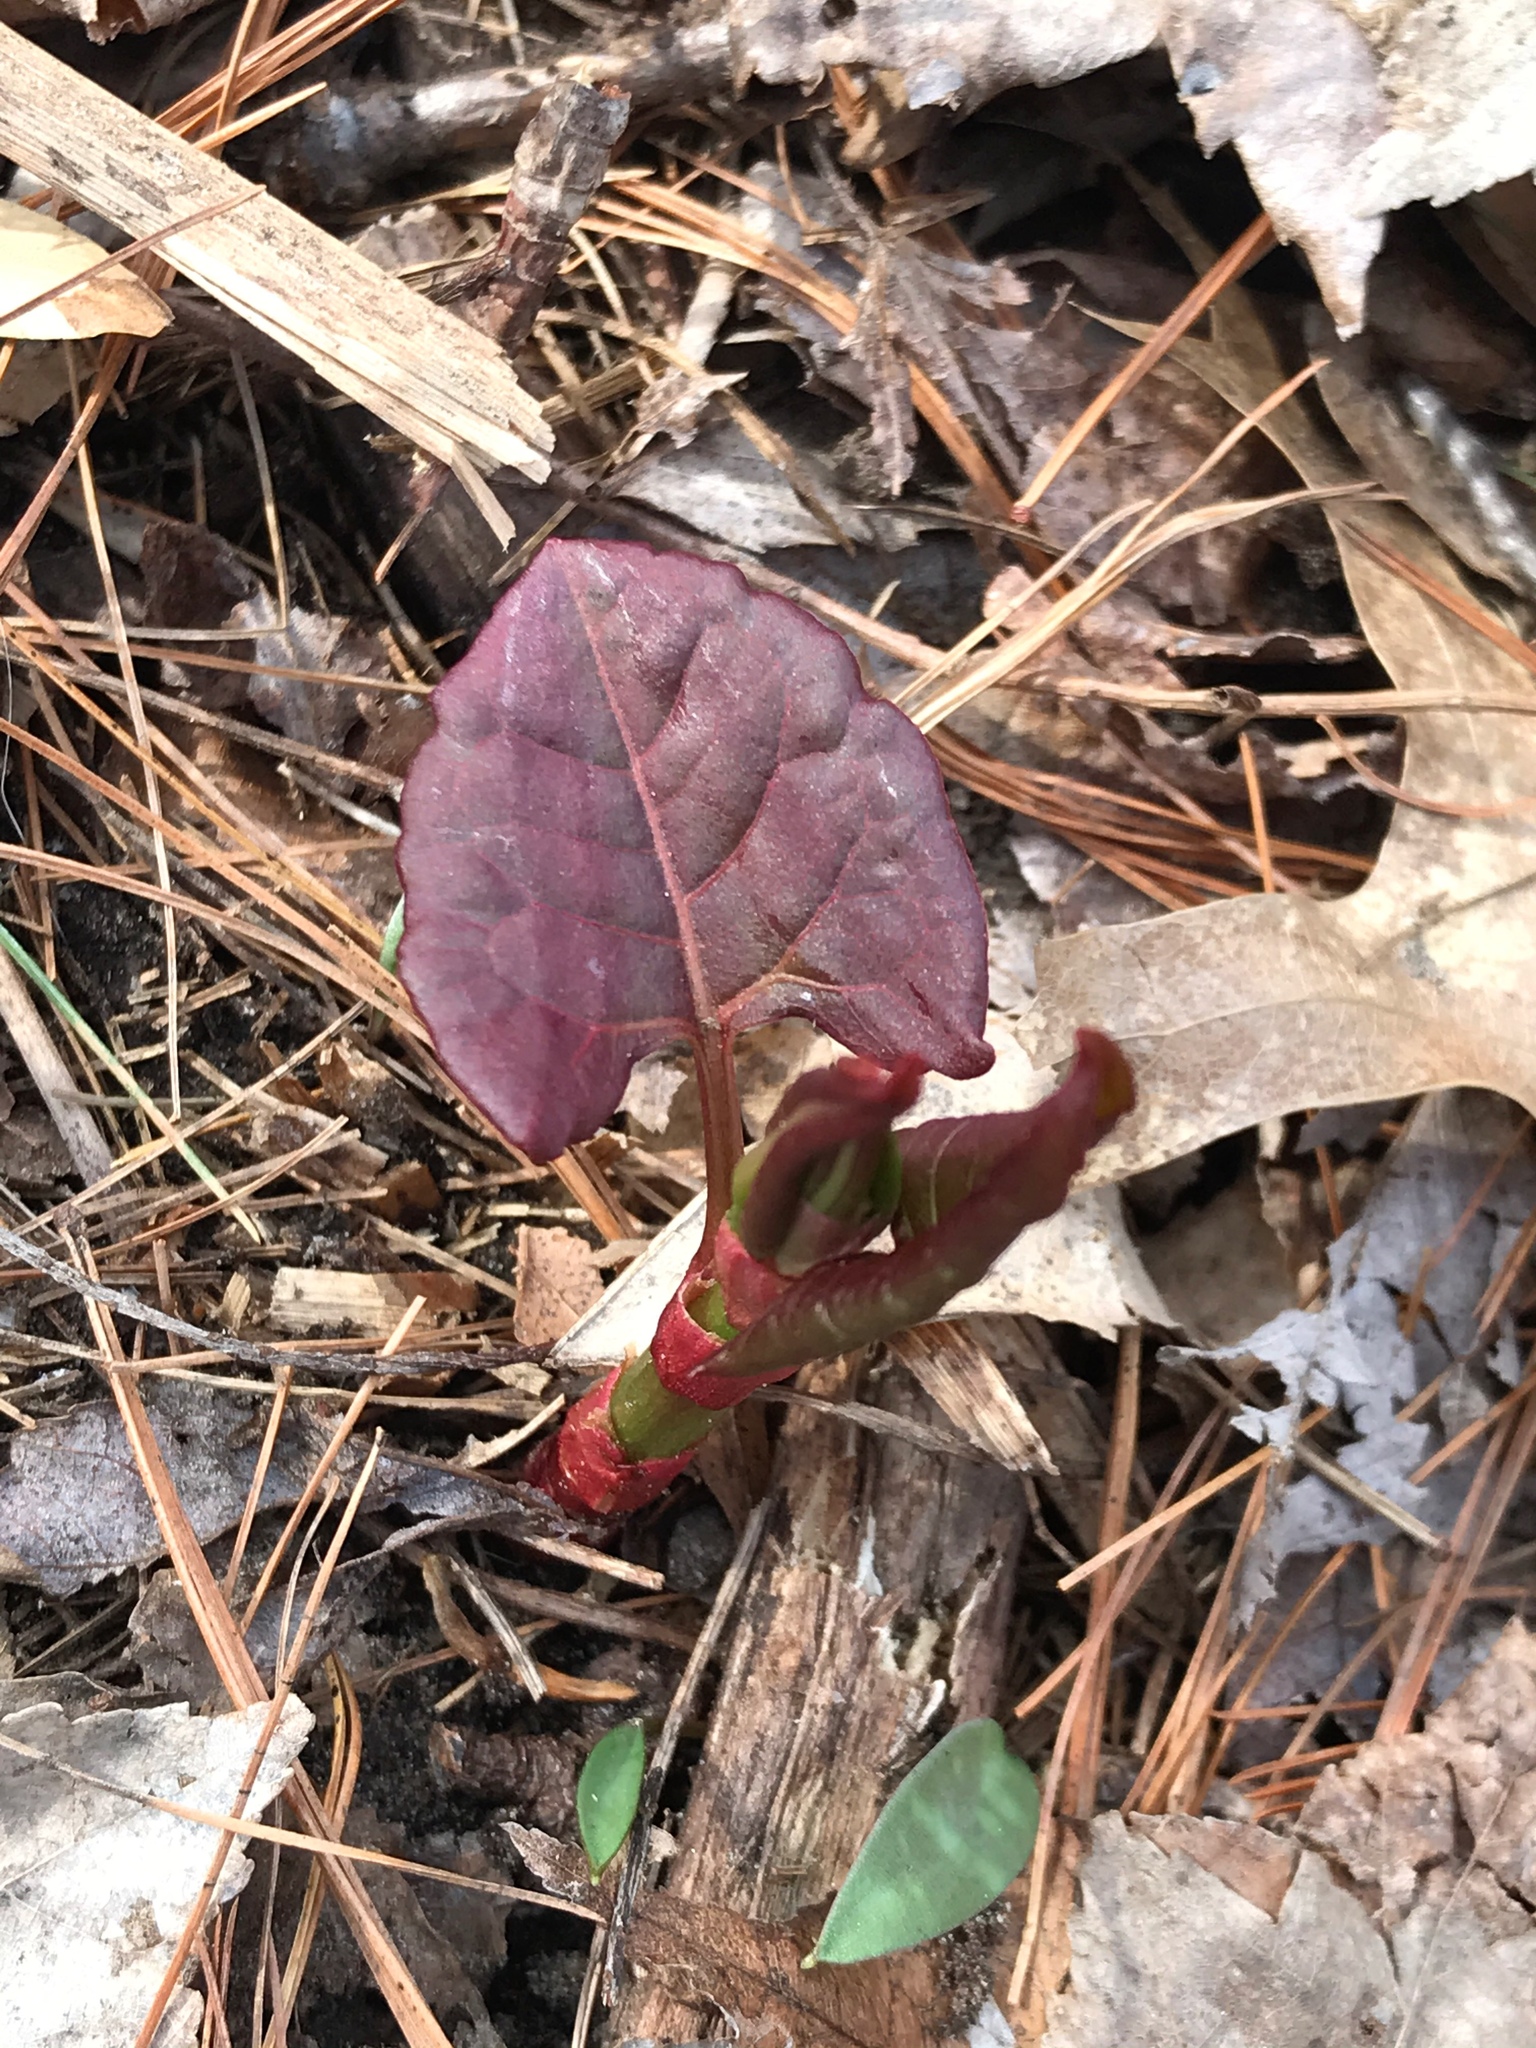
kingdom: Plantae
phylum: Tracheophyta
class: Magnoliopsida
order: Caryophyllales
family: Polygonaceae
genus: Reynoutria
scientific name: Reynoutria japonica
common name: Japanese knotweed
